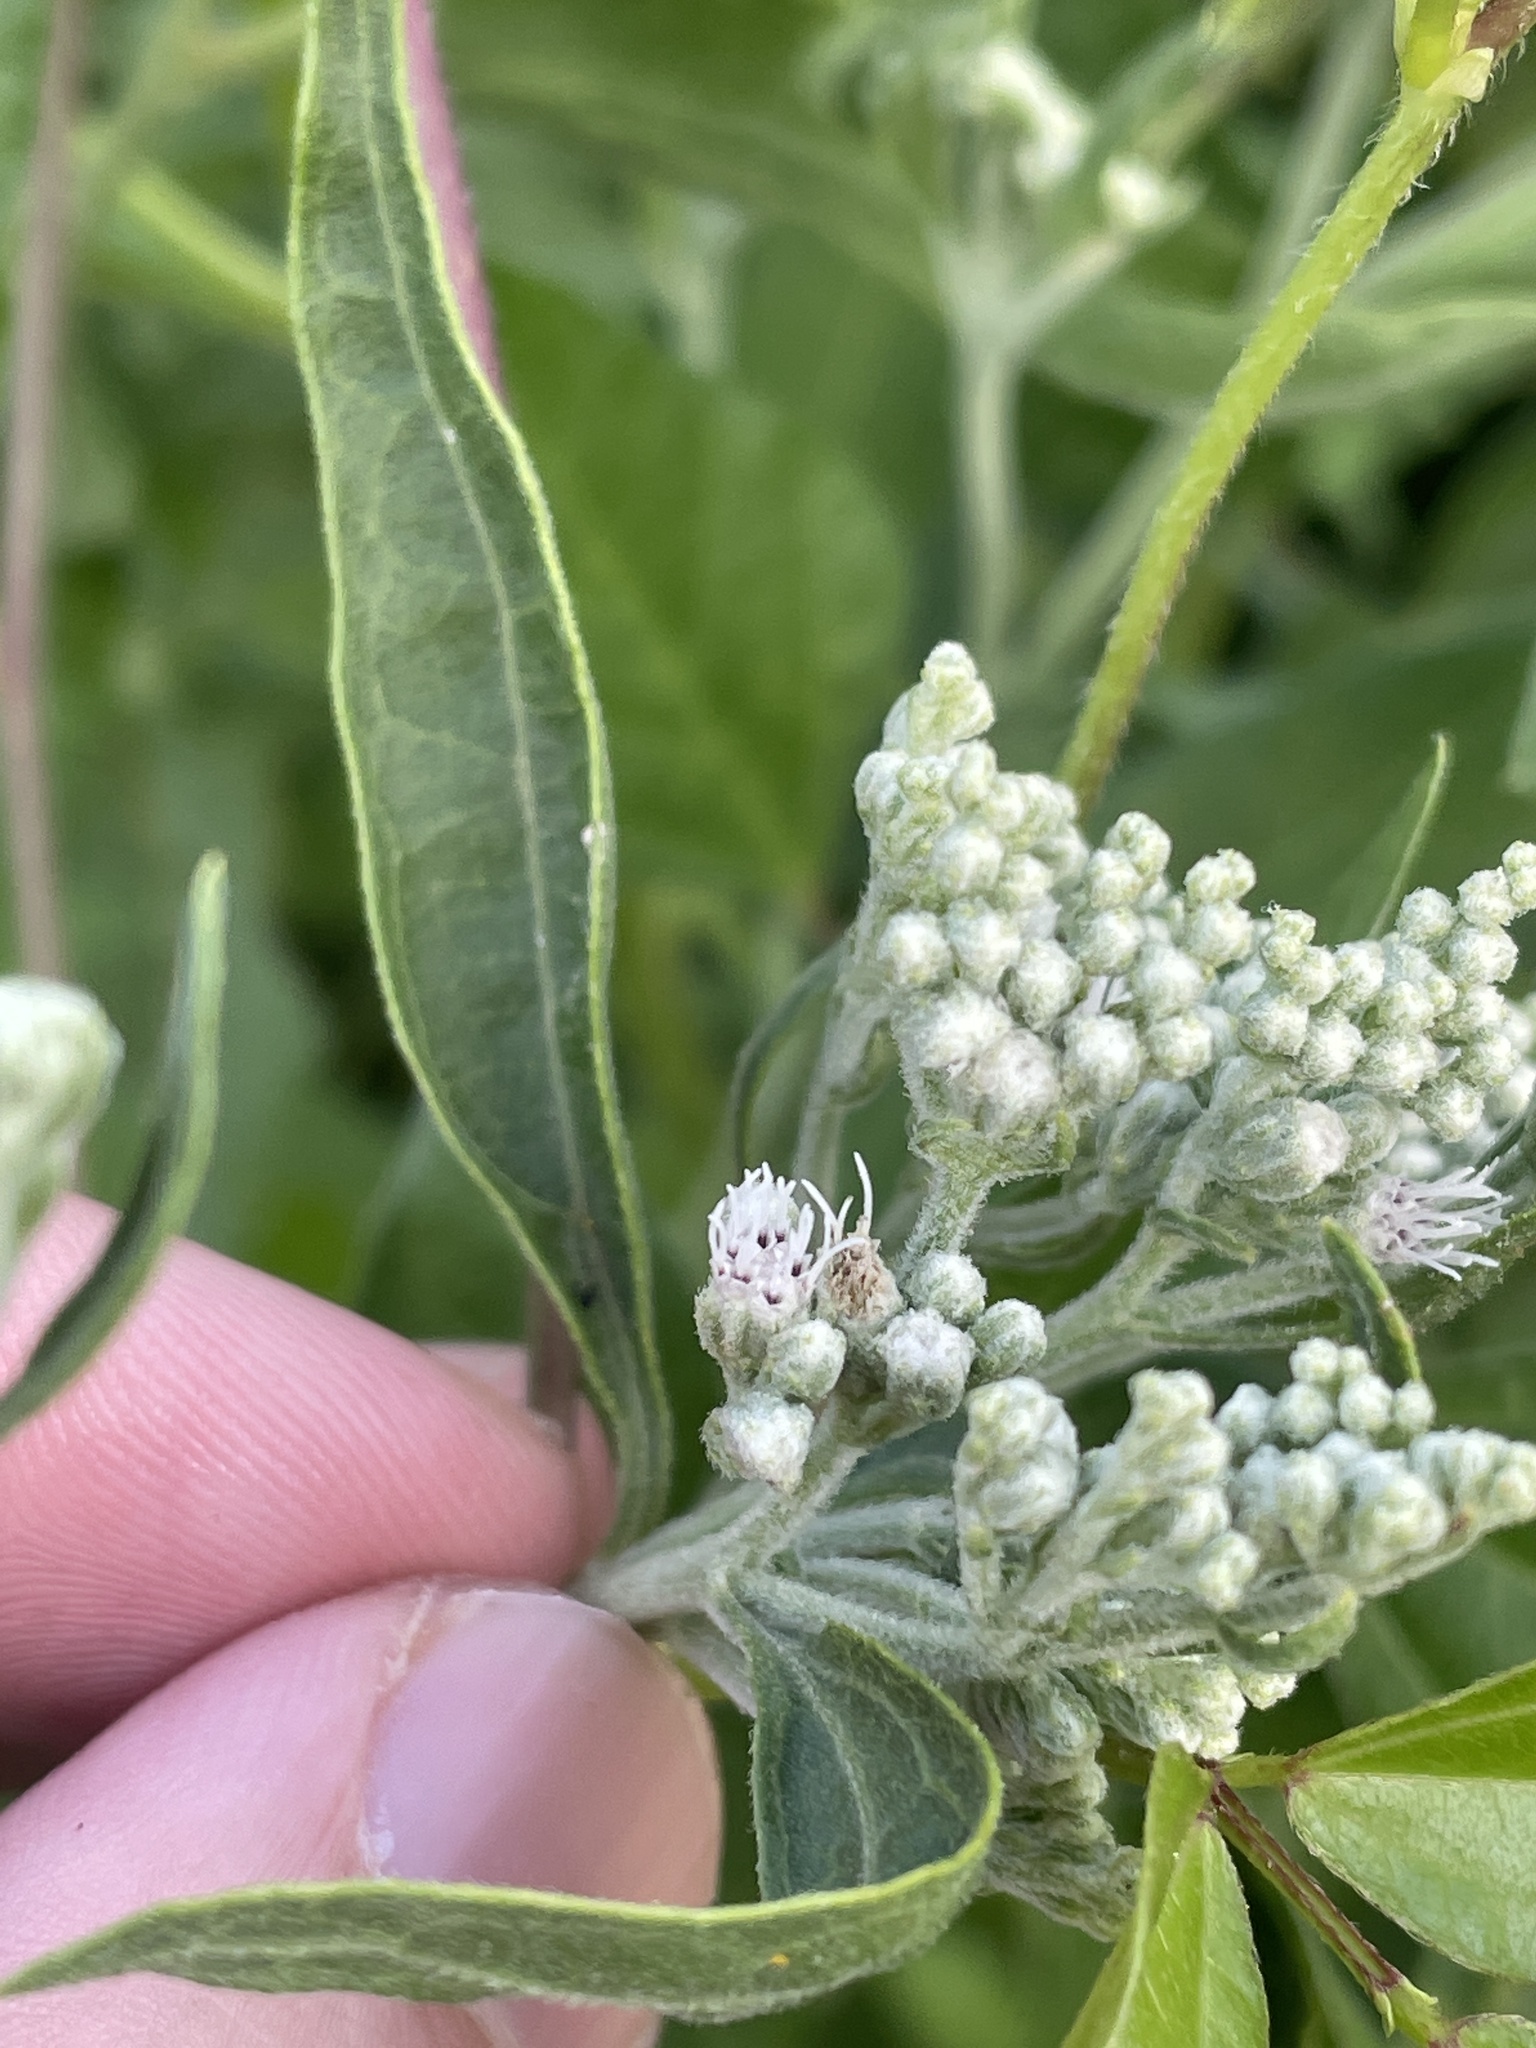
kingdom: Plantae
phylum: Tracheophyta
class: Magnoliopsida
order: Asterales
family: Asteraceae
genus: Eupatorium
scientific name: Eupatorium serotinum
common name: Late boneset
